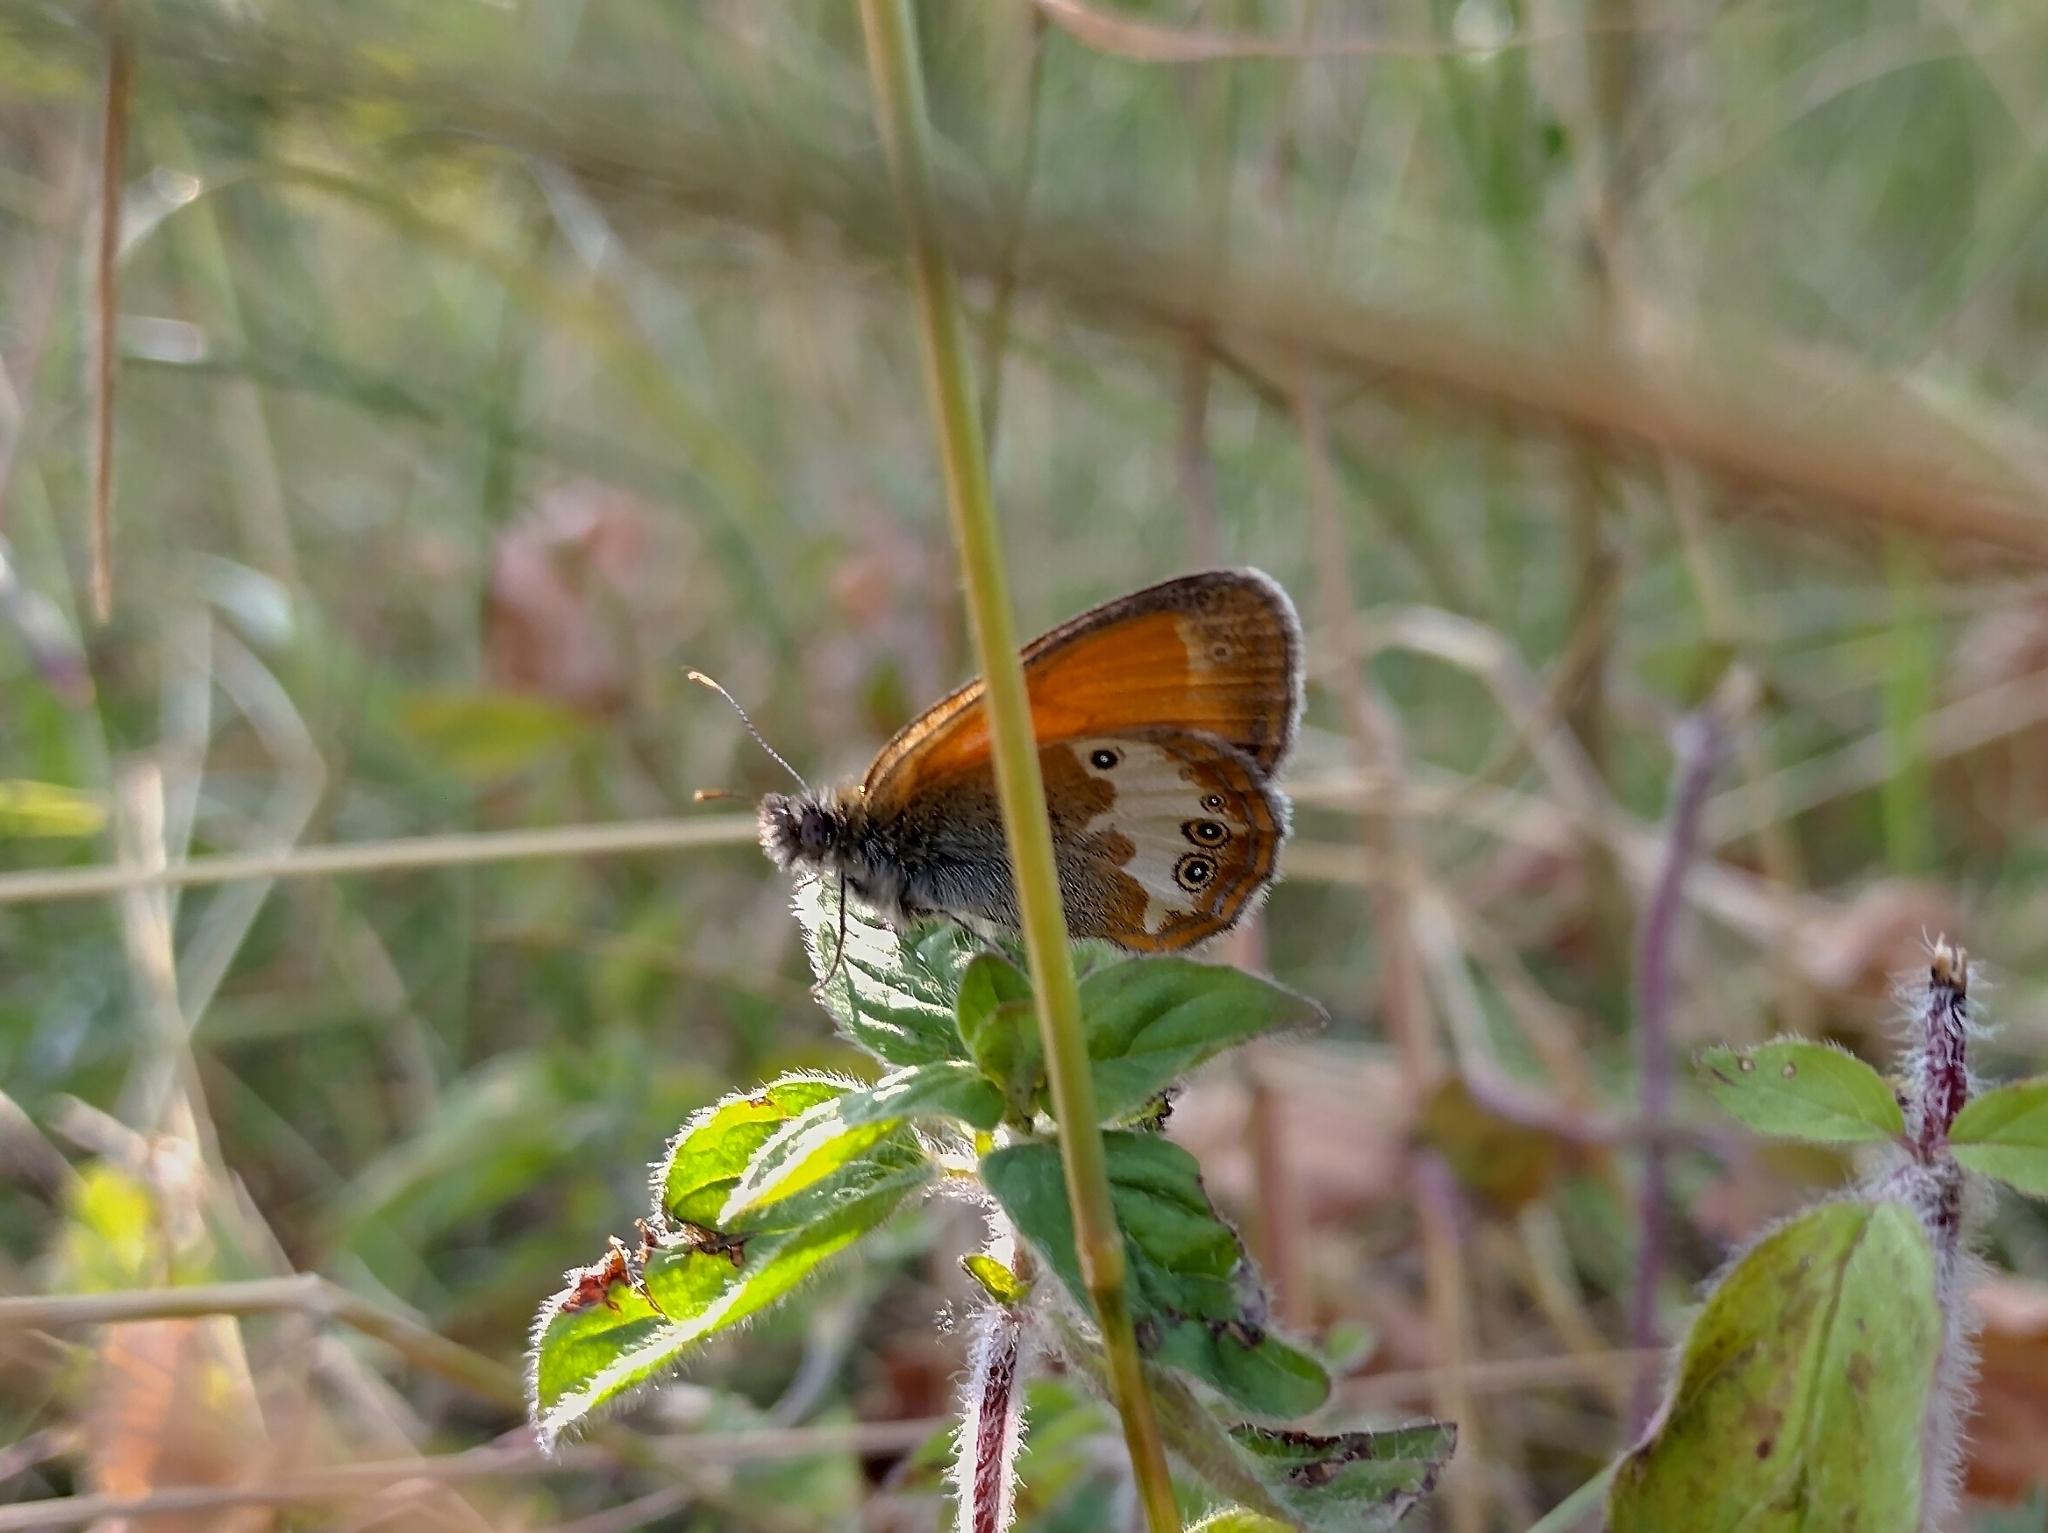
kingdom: Animalia
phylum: Arthropoda
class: Insecta
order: Lepidoptera
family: Nymphalidae
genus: Coenonympha
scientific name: Coenonympha arcania
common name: Pearly heath
